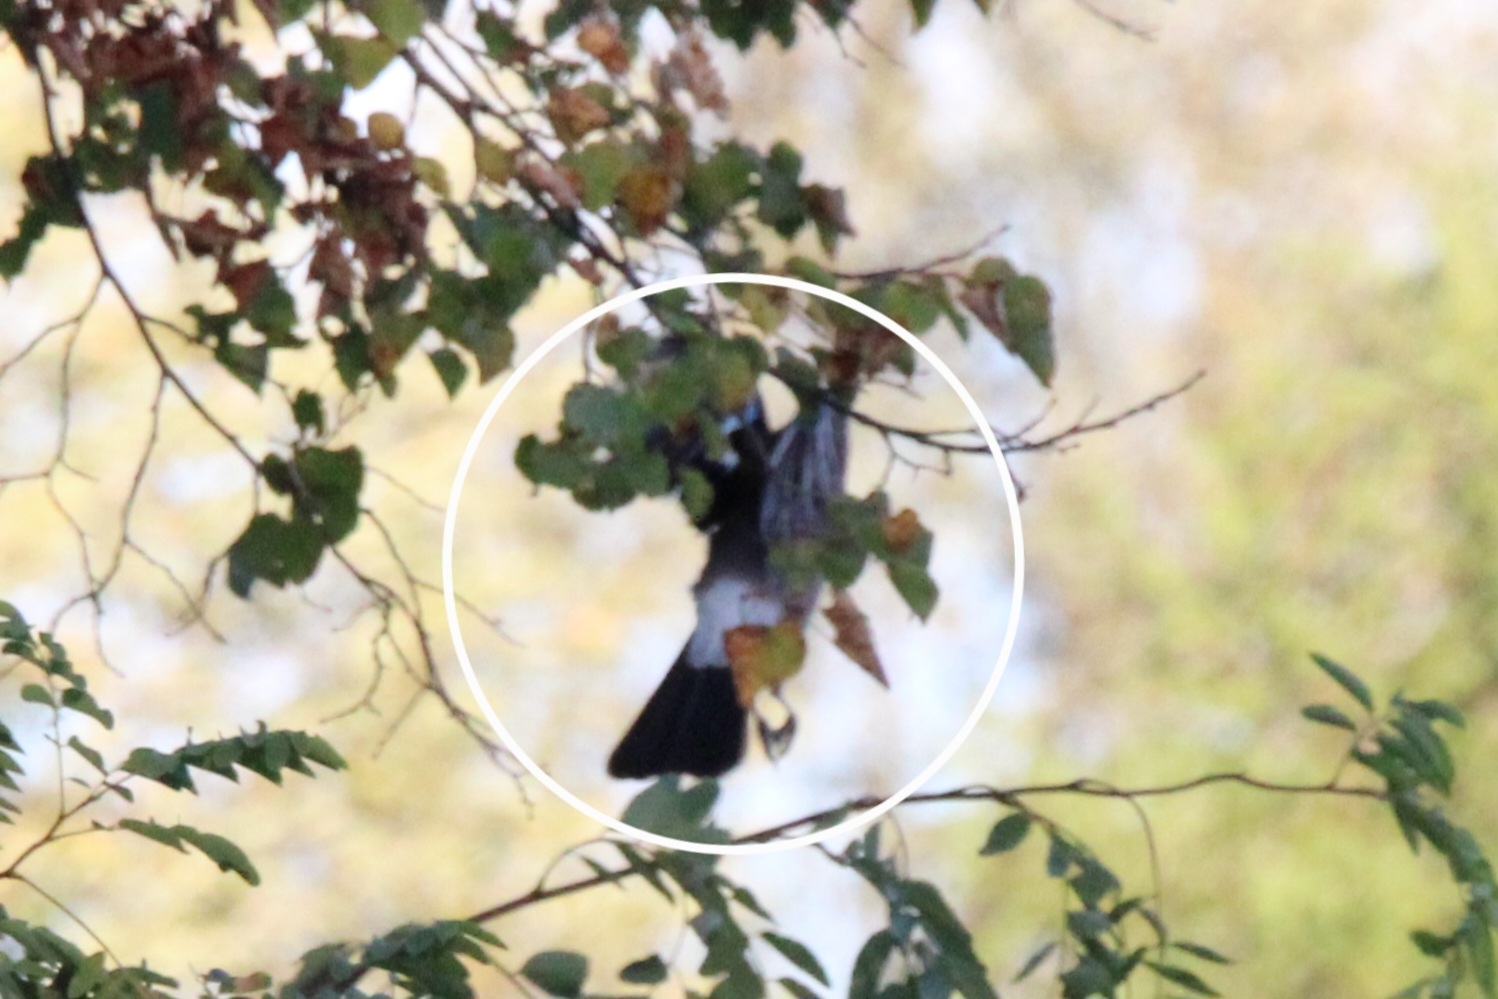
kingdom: Animalia
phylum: Chordata
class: Aves
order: Passeriformes
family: Corvidae
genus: Garrulus
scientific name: Garrulus glandarius
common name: Eurasian jay
